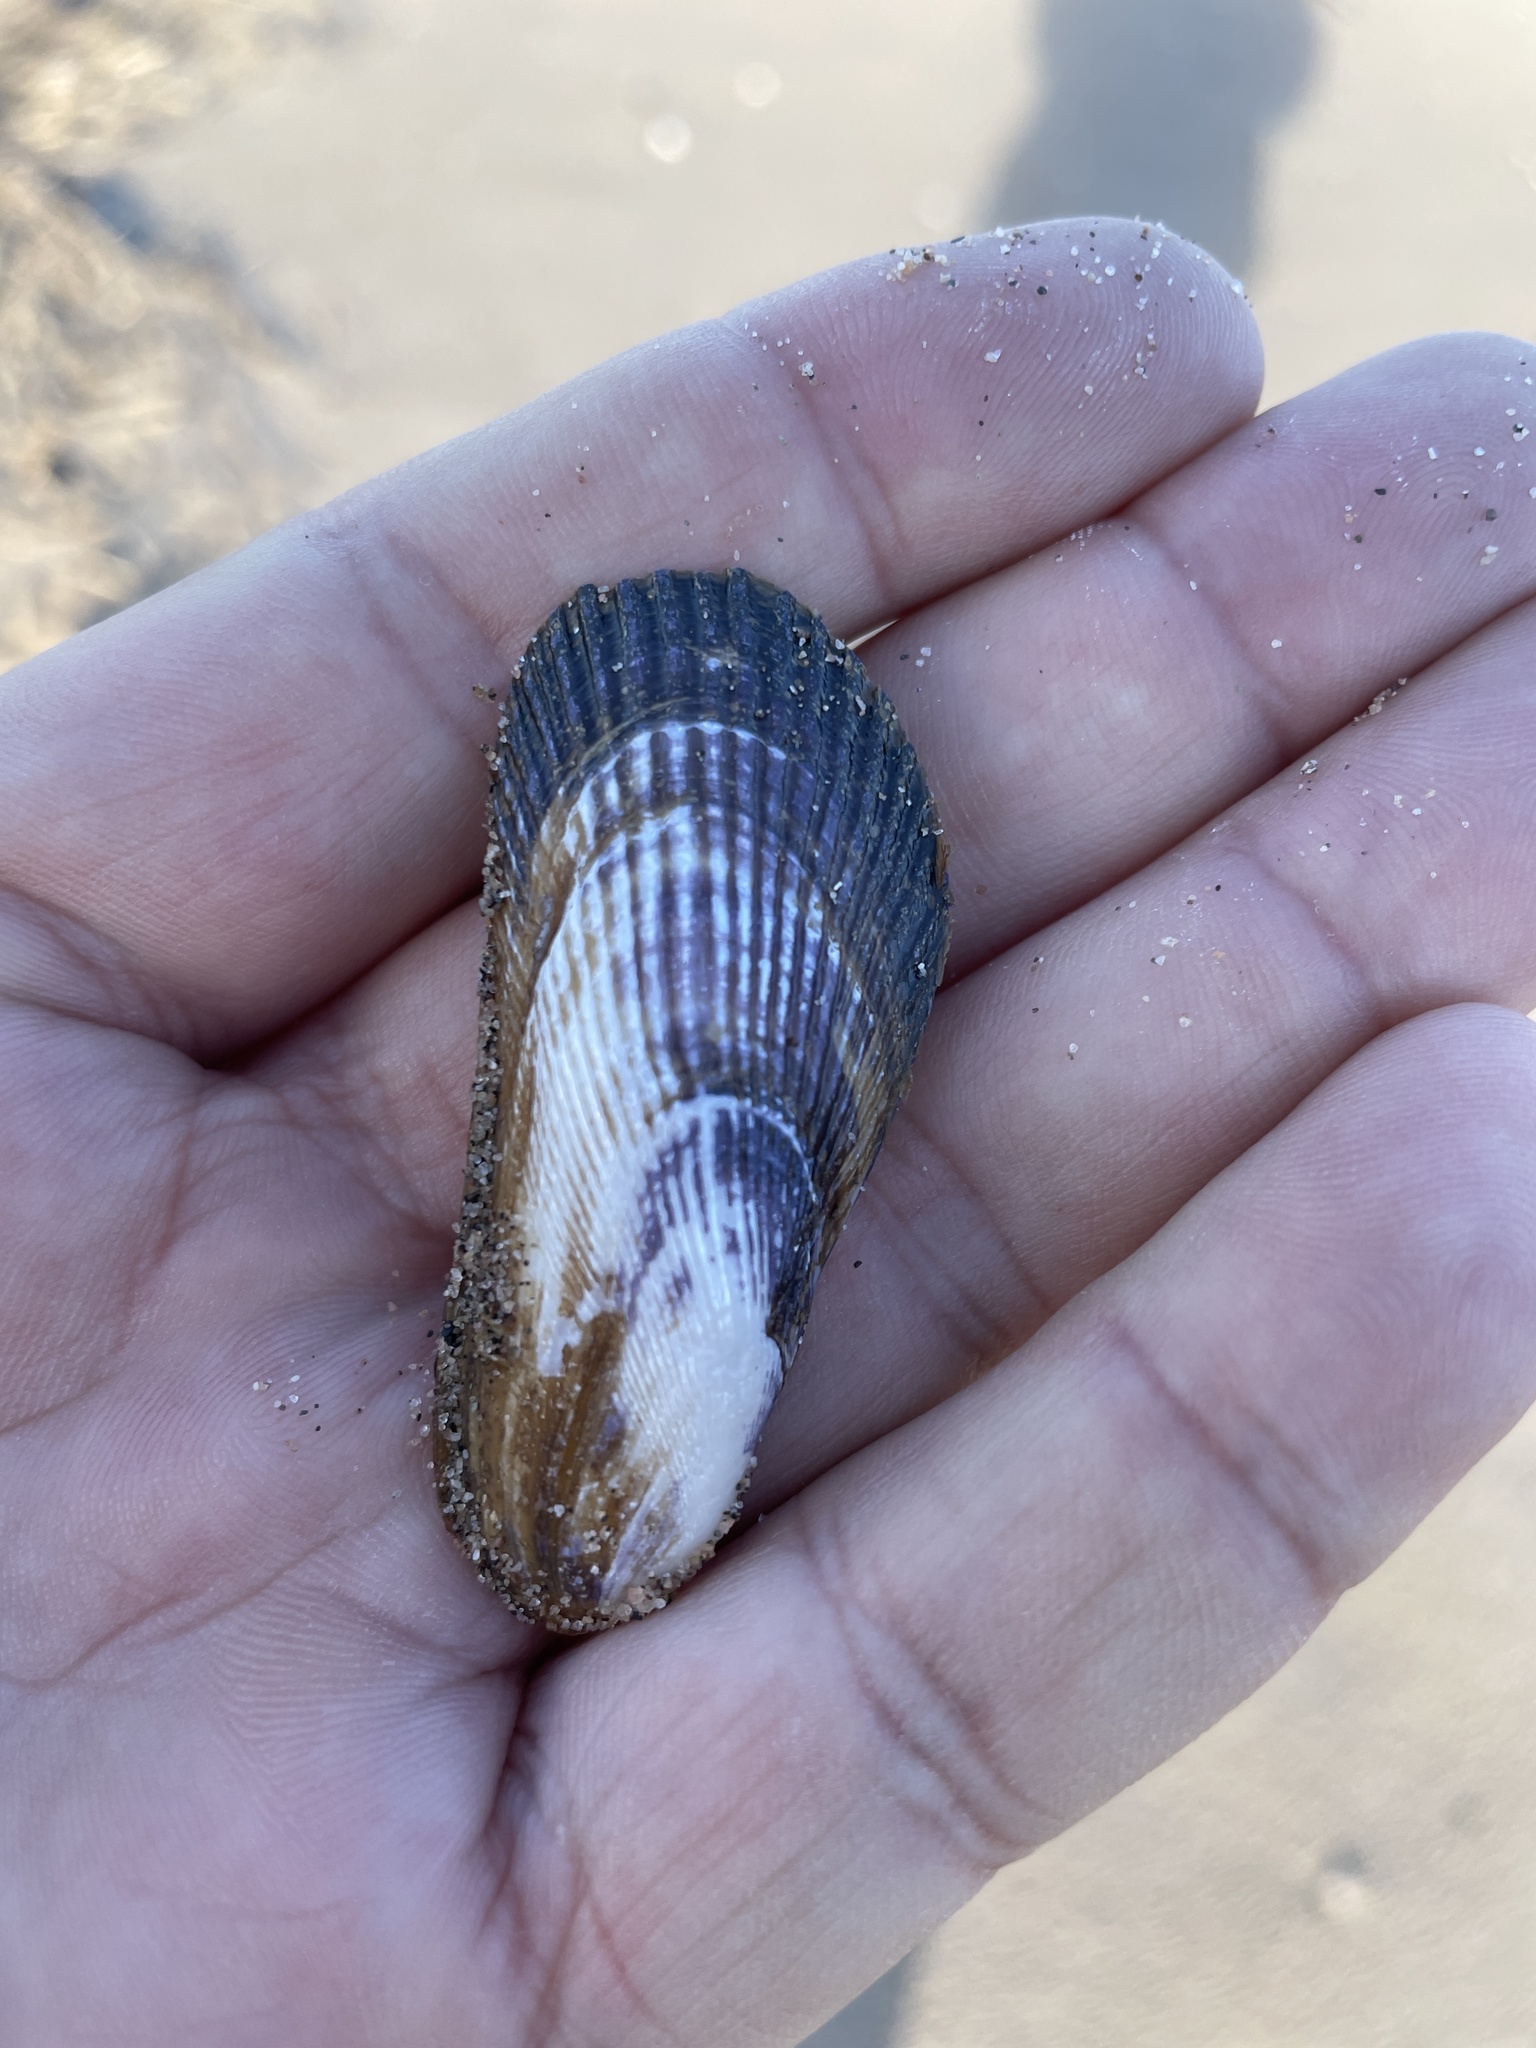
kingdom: Animalia
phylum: Mollusca
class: Bivalvia
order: Mytilida
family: Mytilidae
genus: Geukensia
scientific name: Geukensia demissa
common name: Ribbed mussel
